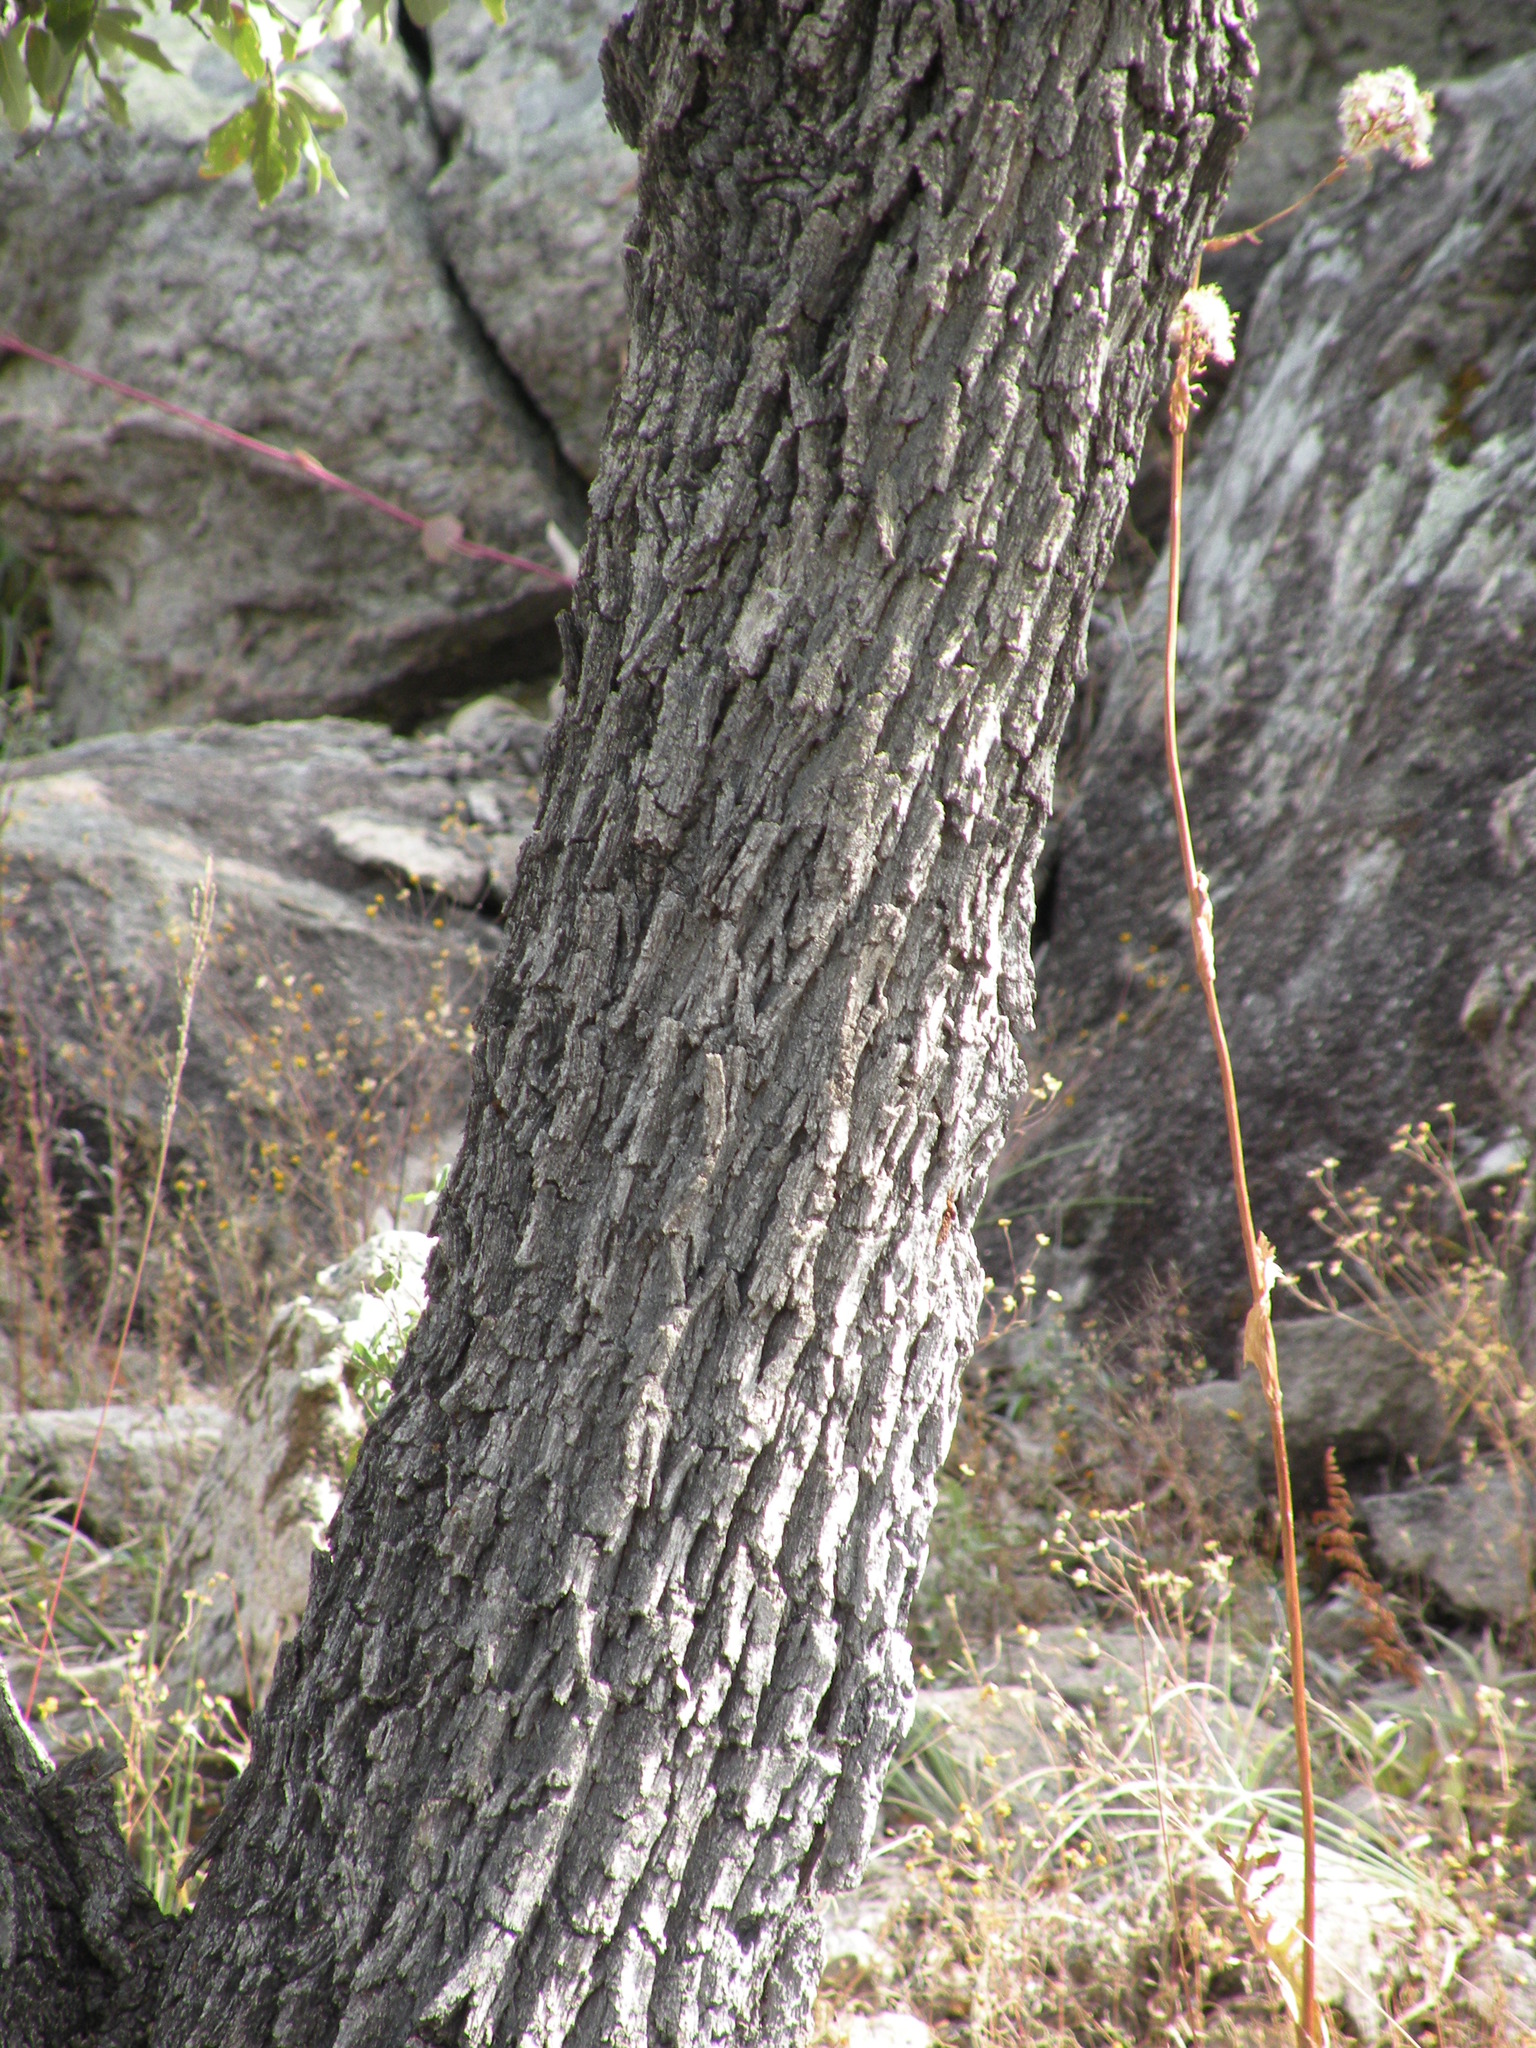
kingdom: Plantae
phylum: Tracheophyta
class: Magnoliopsida
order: Fagales
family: Fagaceae
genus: Quercus
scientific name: Quercus grisea
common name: Gray oak
